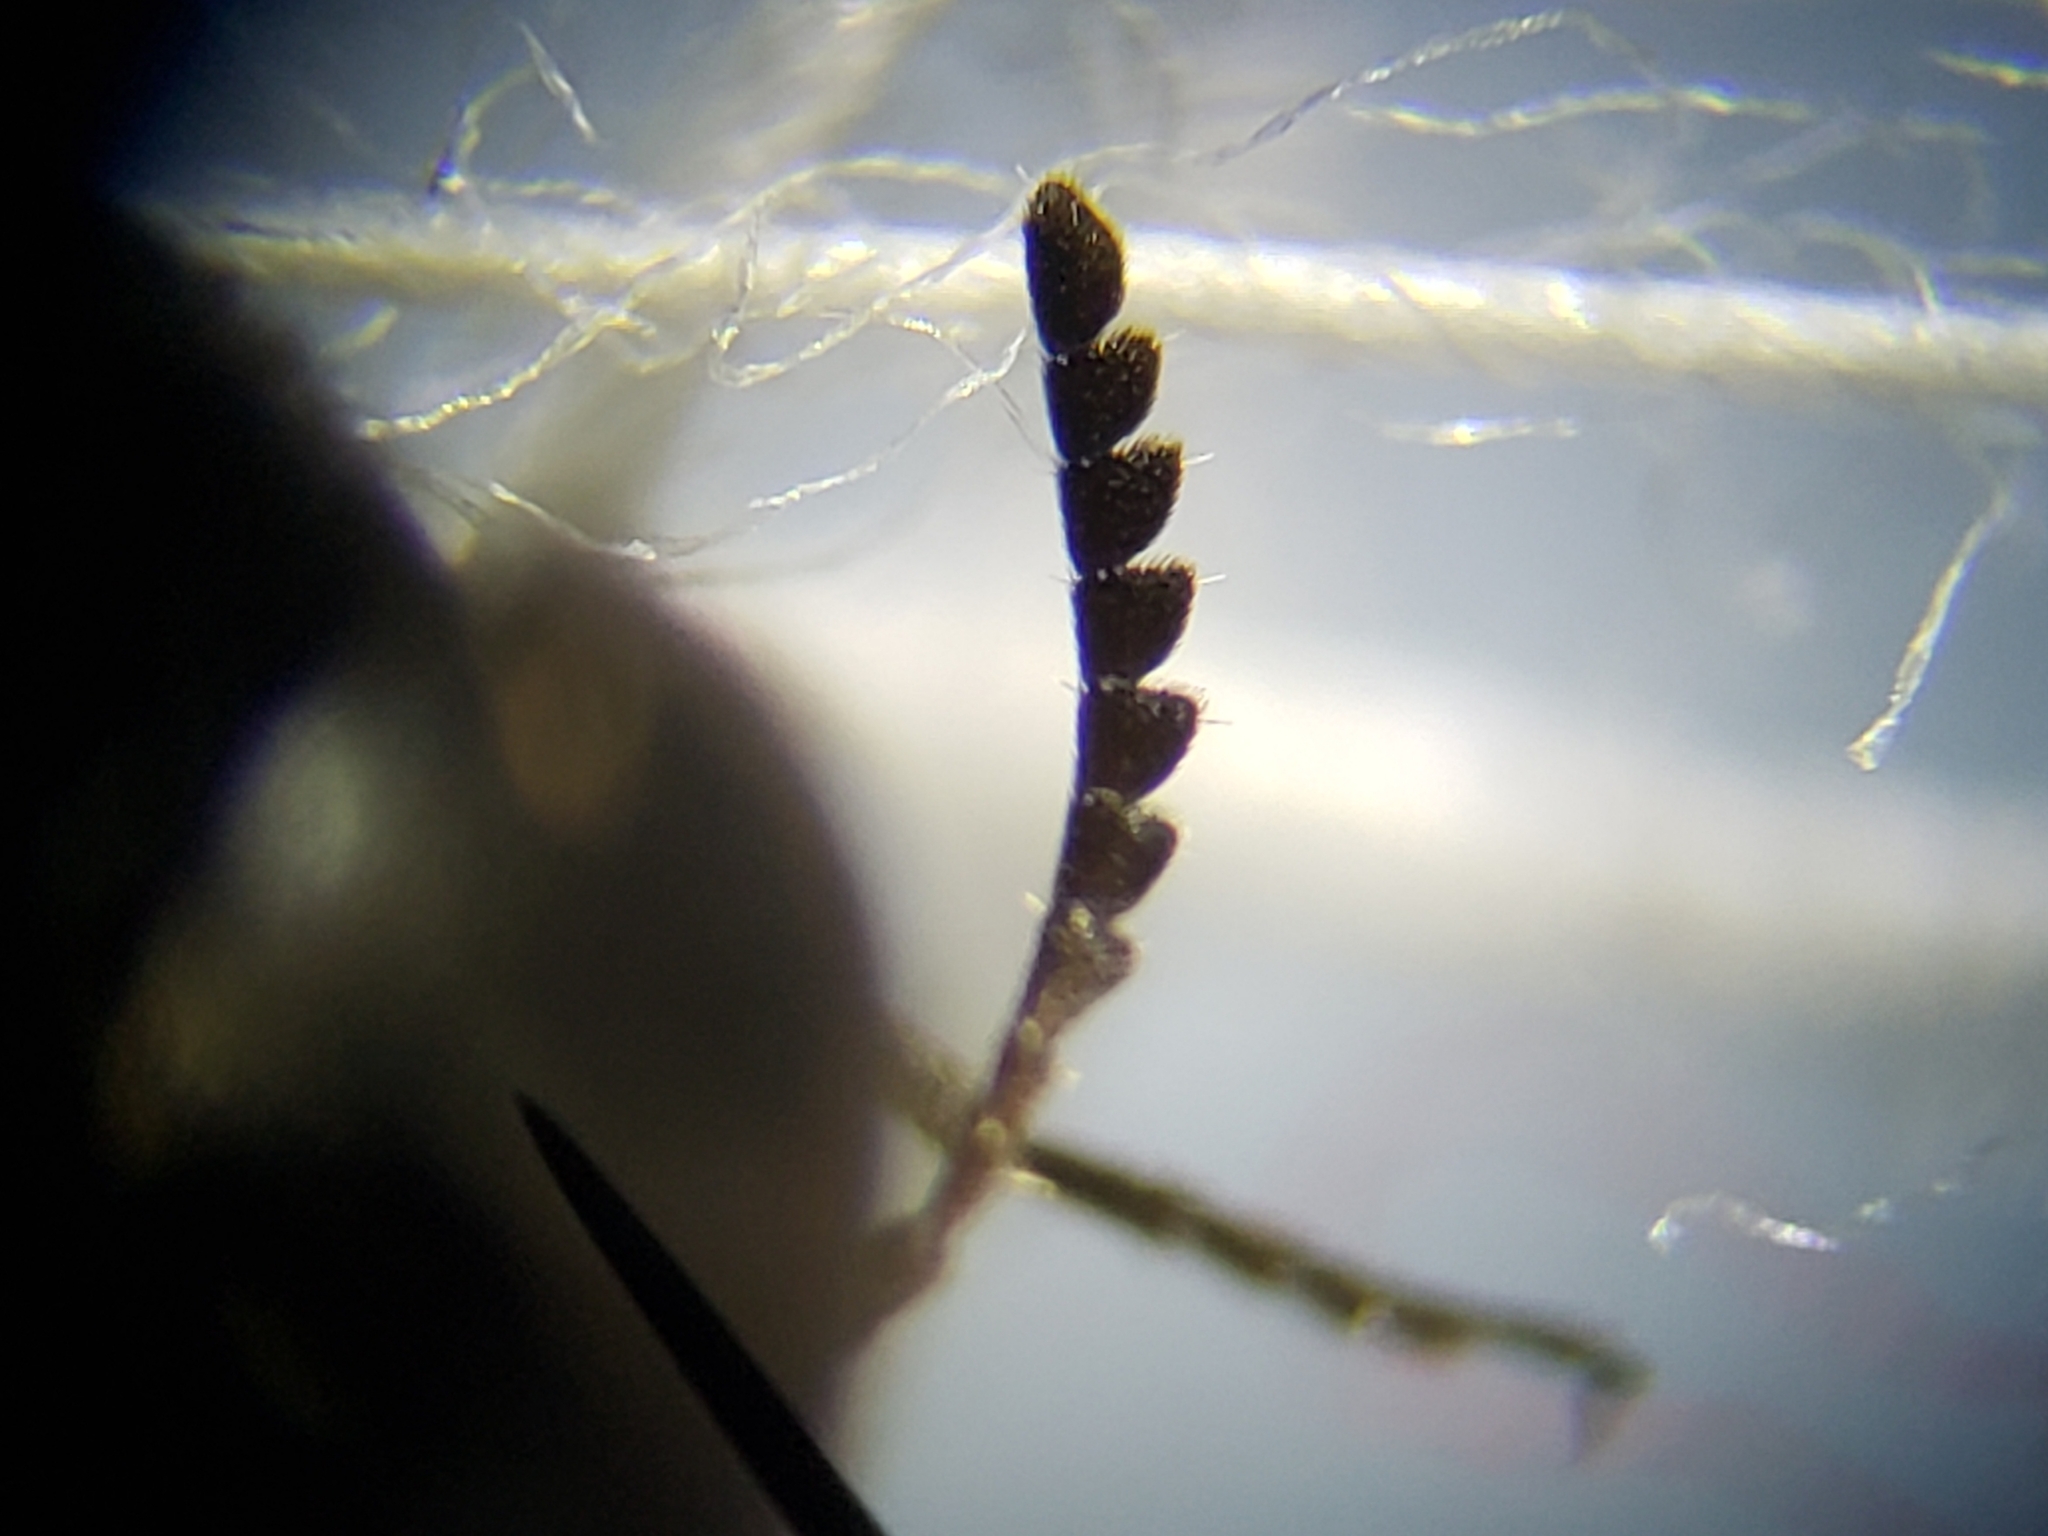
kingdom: Animalia
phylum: Arthropoda
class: Insecta
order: Coleoptera
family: Mordellidae
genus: Mordella
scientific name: Mordella melaena
